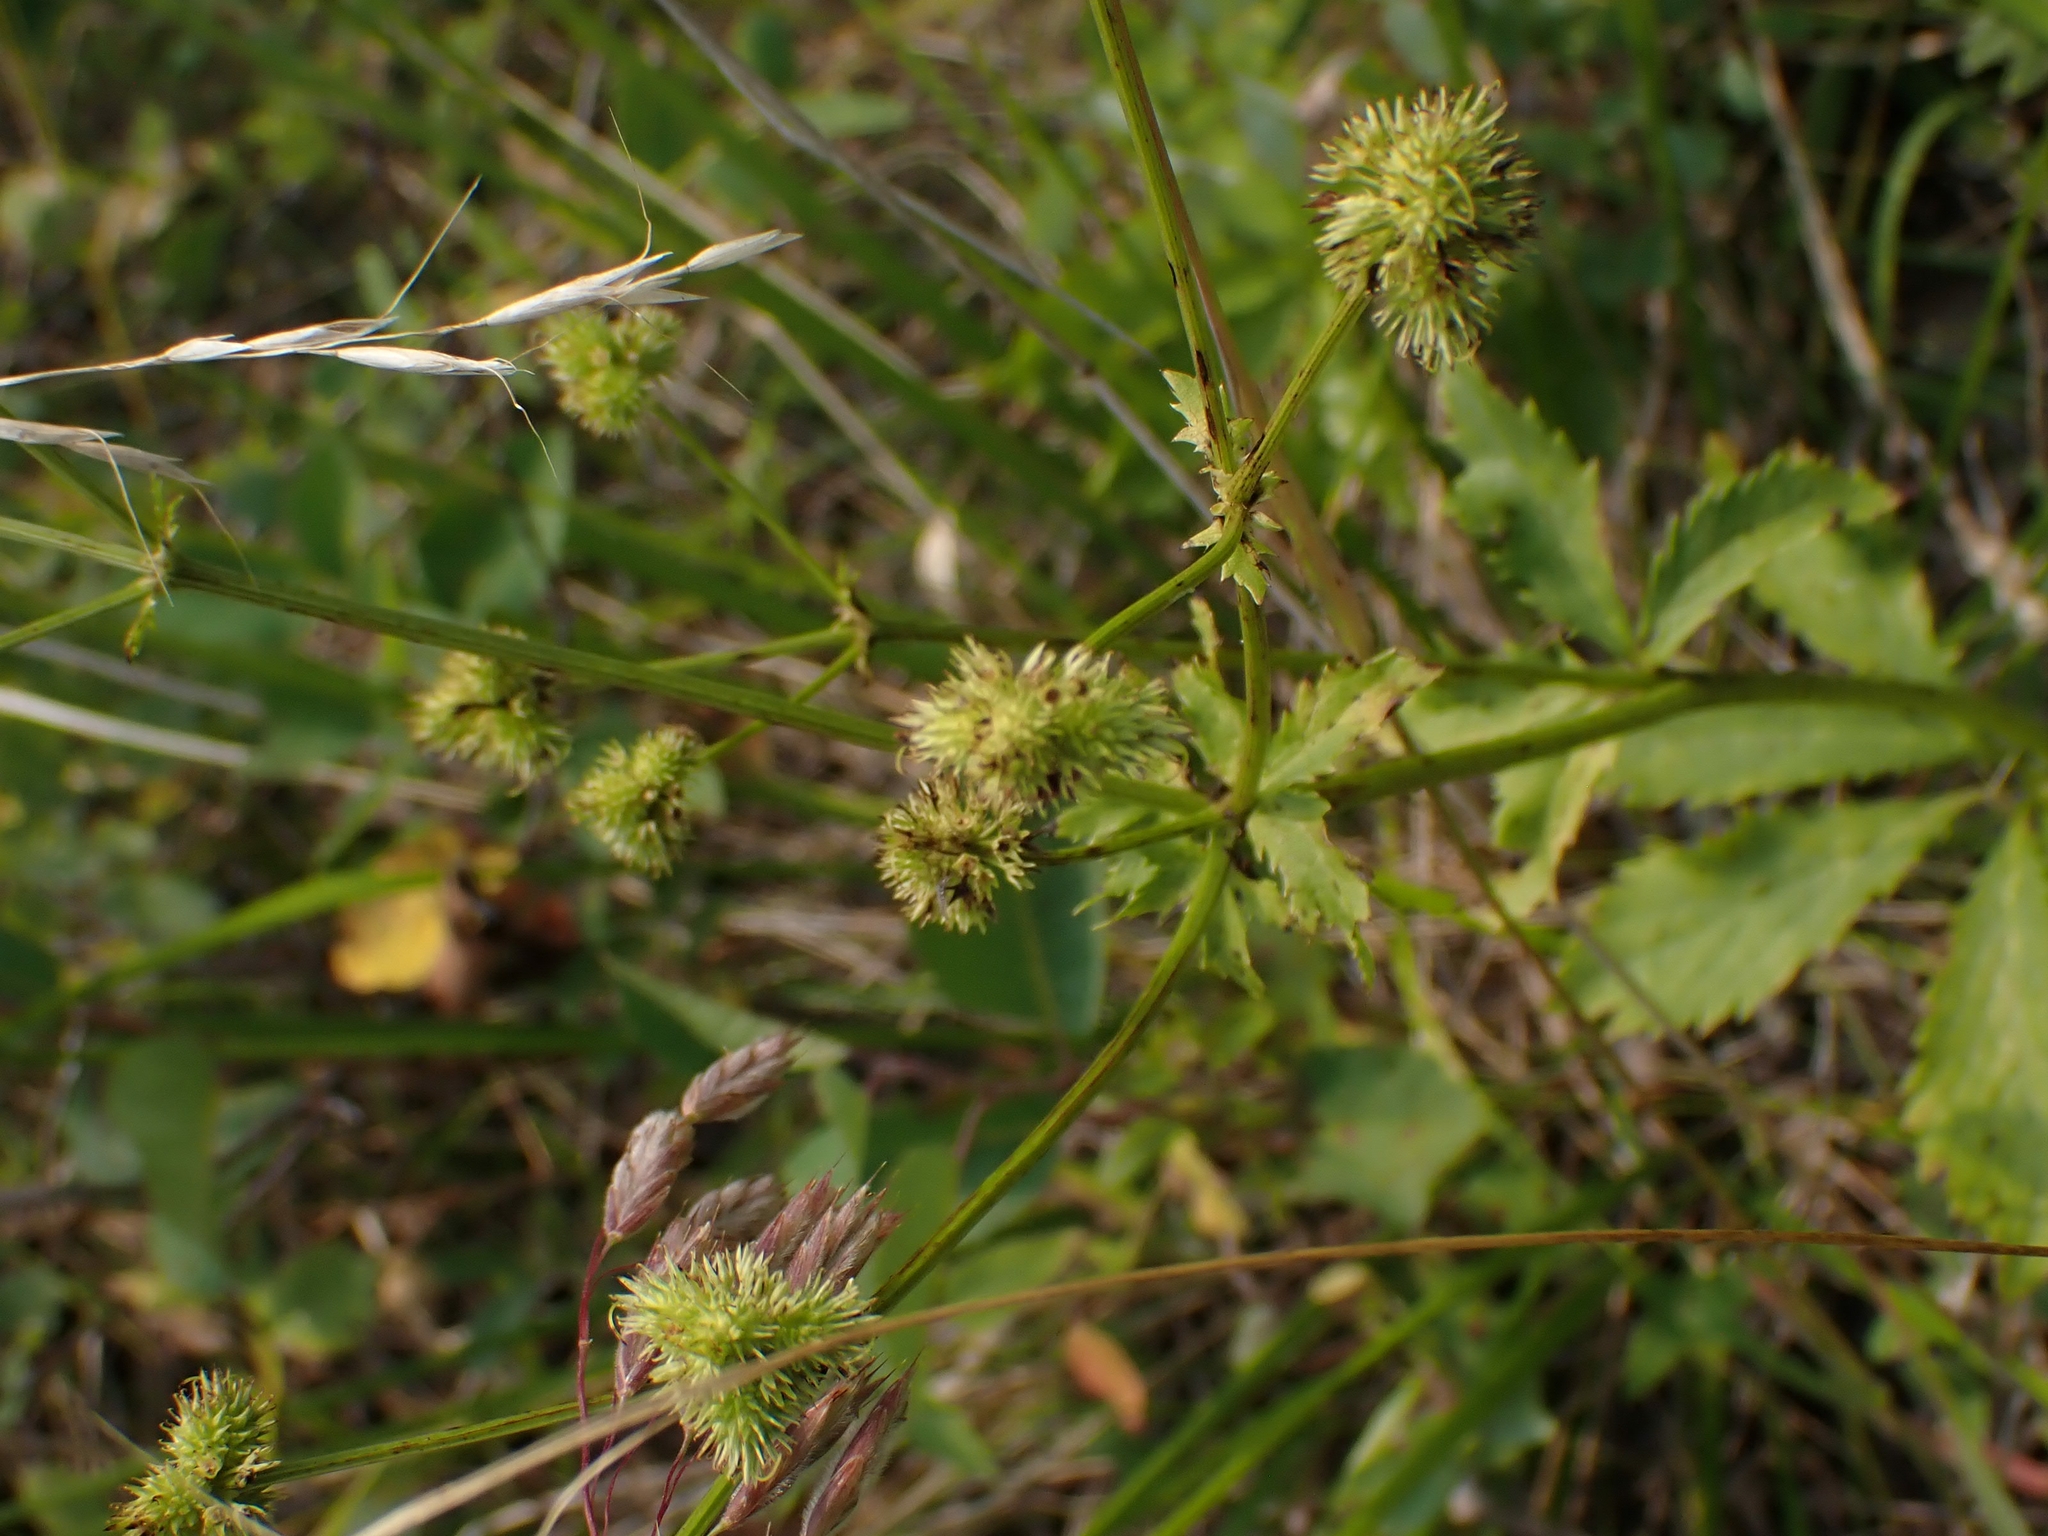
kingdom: Plantae
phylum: Tracheophyta
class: Magnoliopsida
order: Apiales
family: Apiaceae
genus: Sanicula
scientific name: Sanicula marilandica
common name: Black snakeroot
